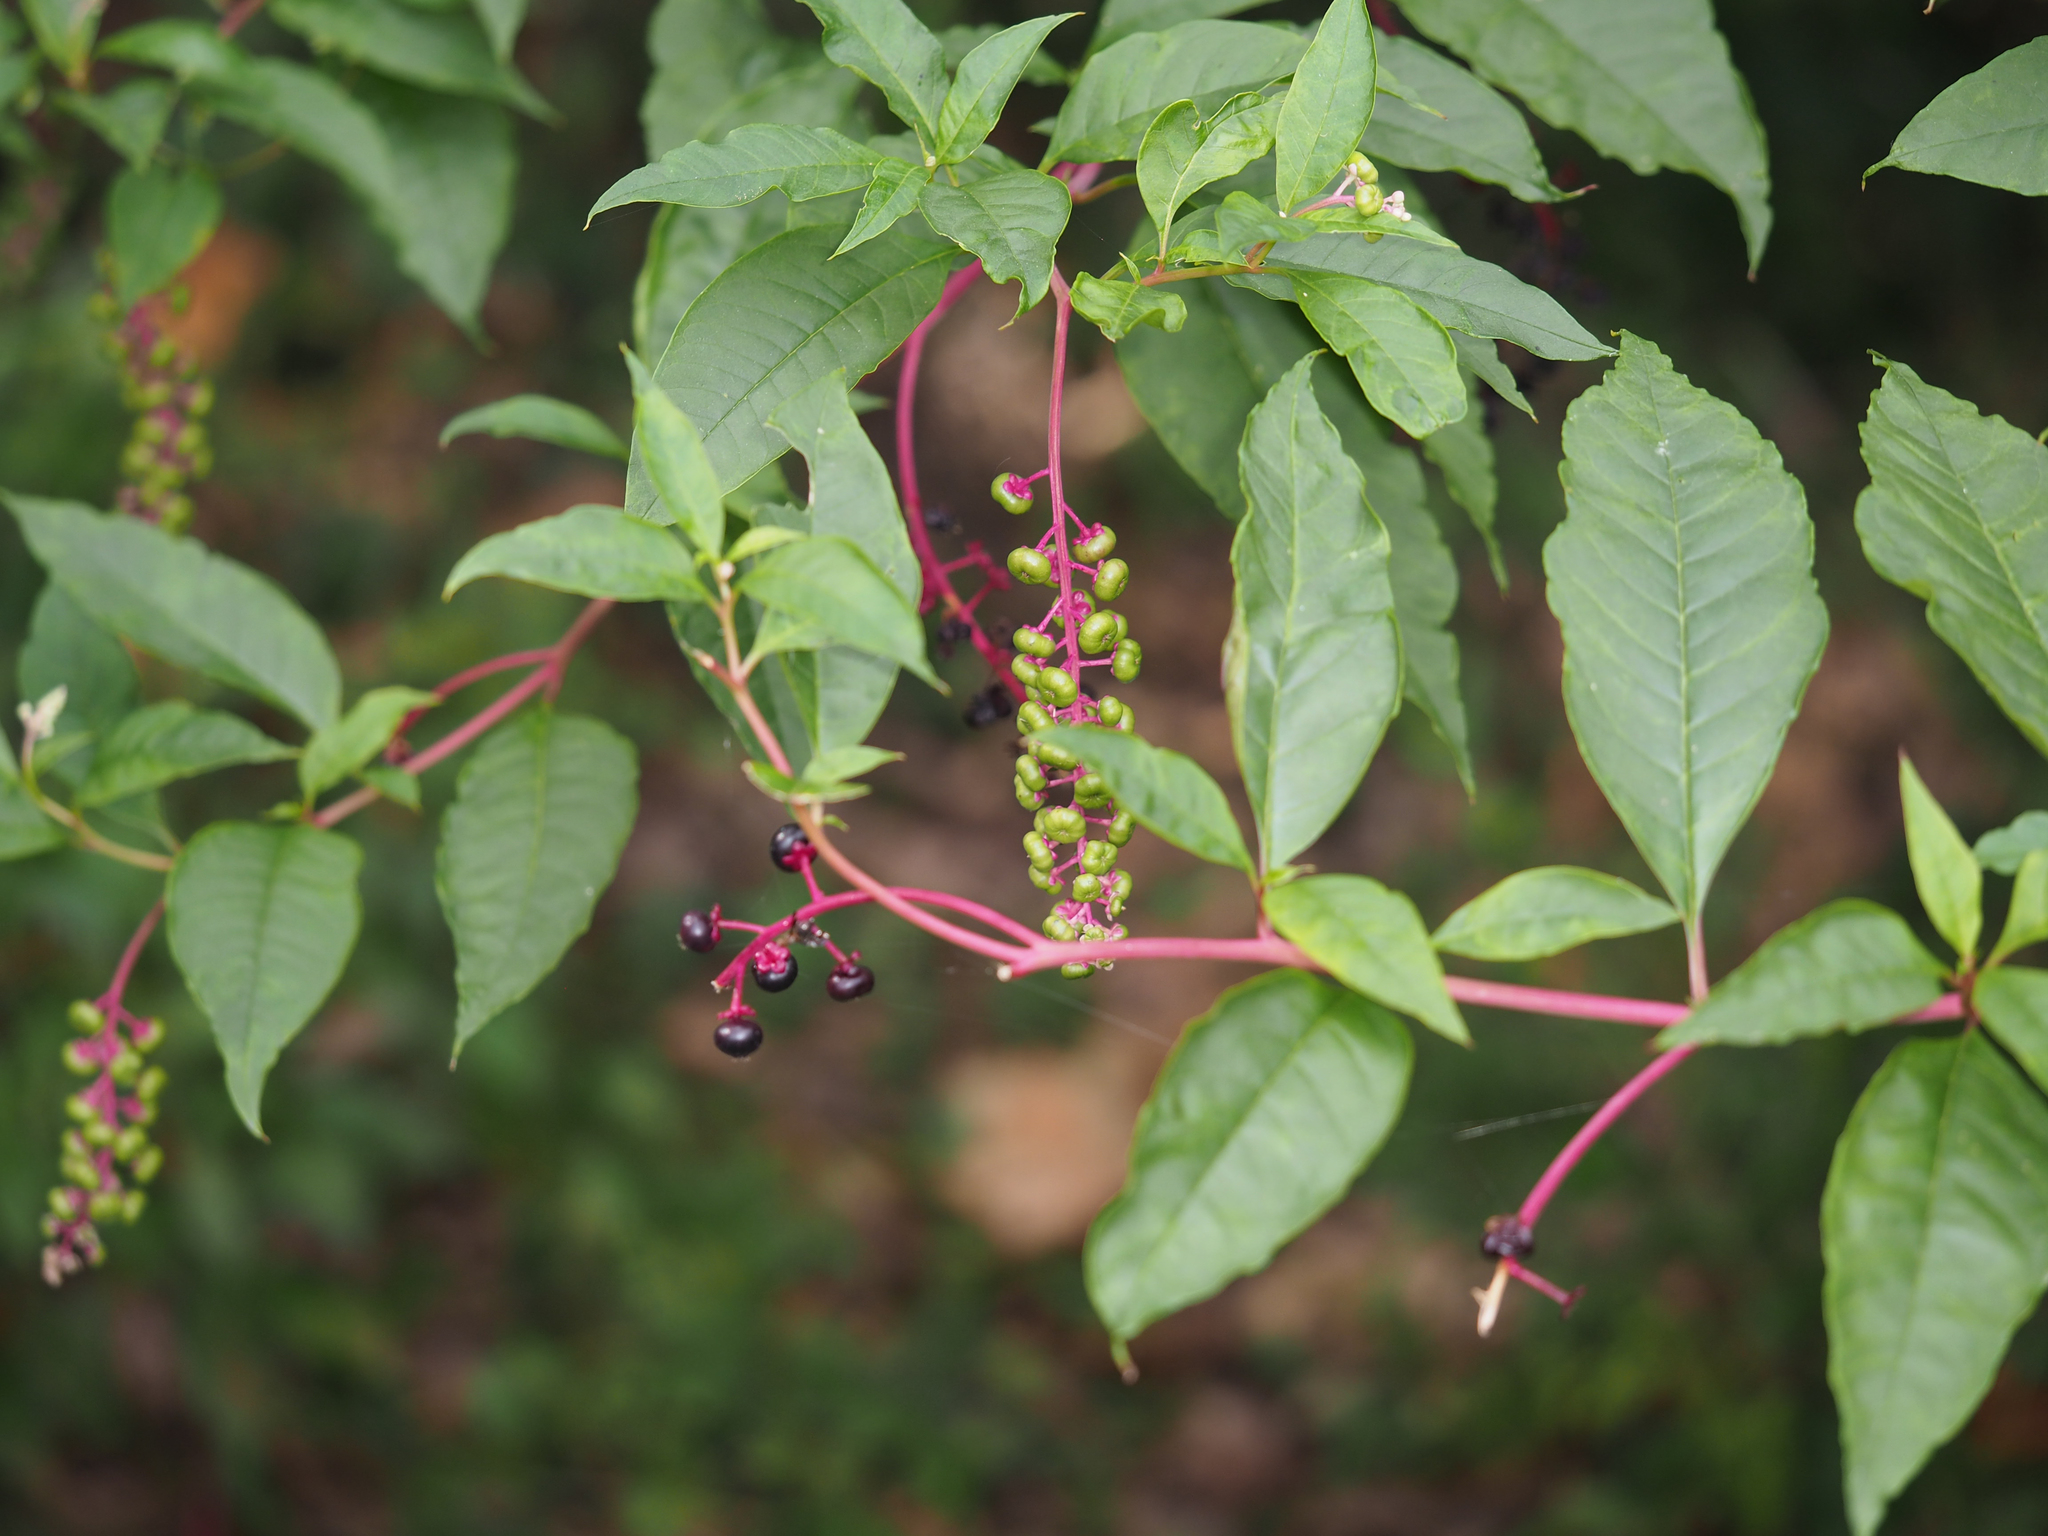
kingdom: Plantae
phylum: Tracheophyta
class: Magnoliopsida
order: Caryophyllales
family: Phytolaccaceae
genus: Phytolacca
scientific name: Phytolacca americana
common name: American pokeweed
